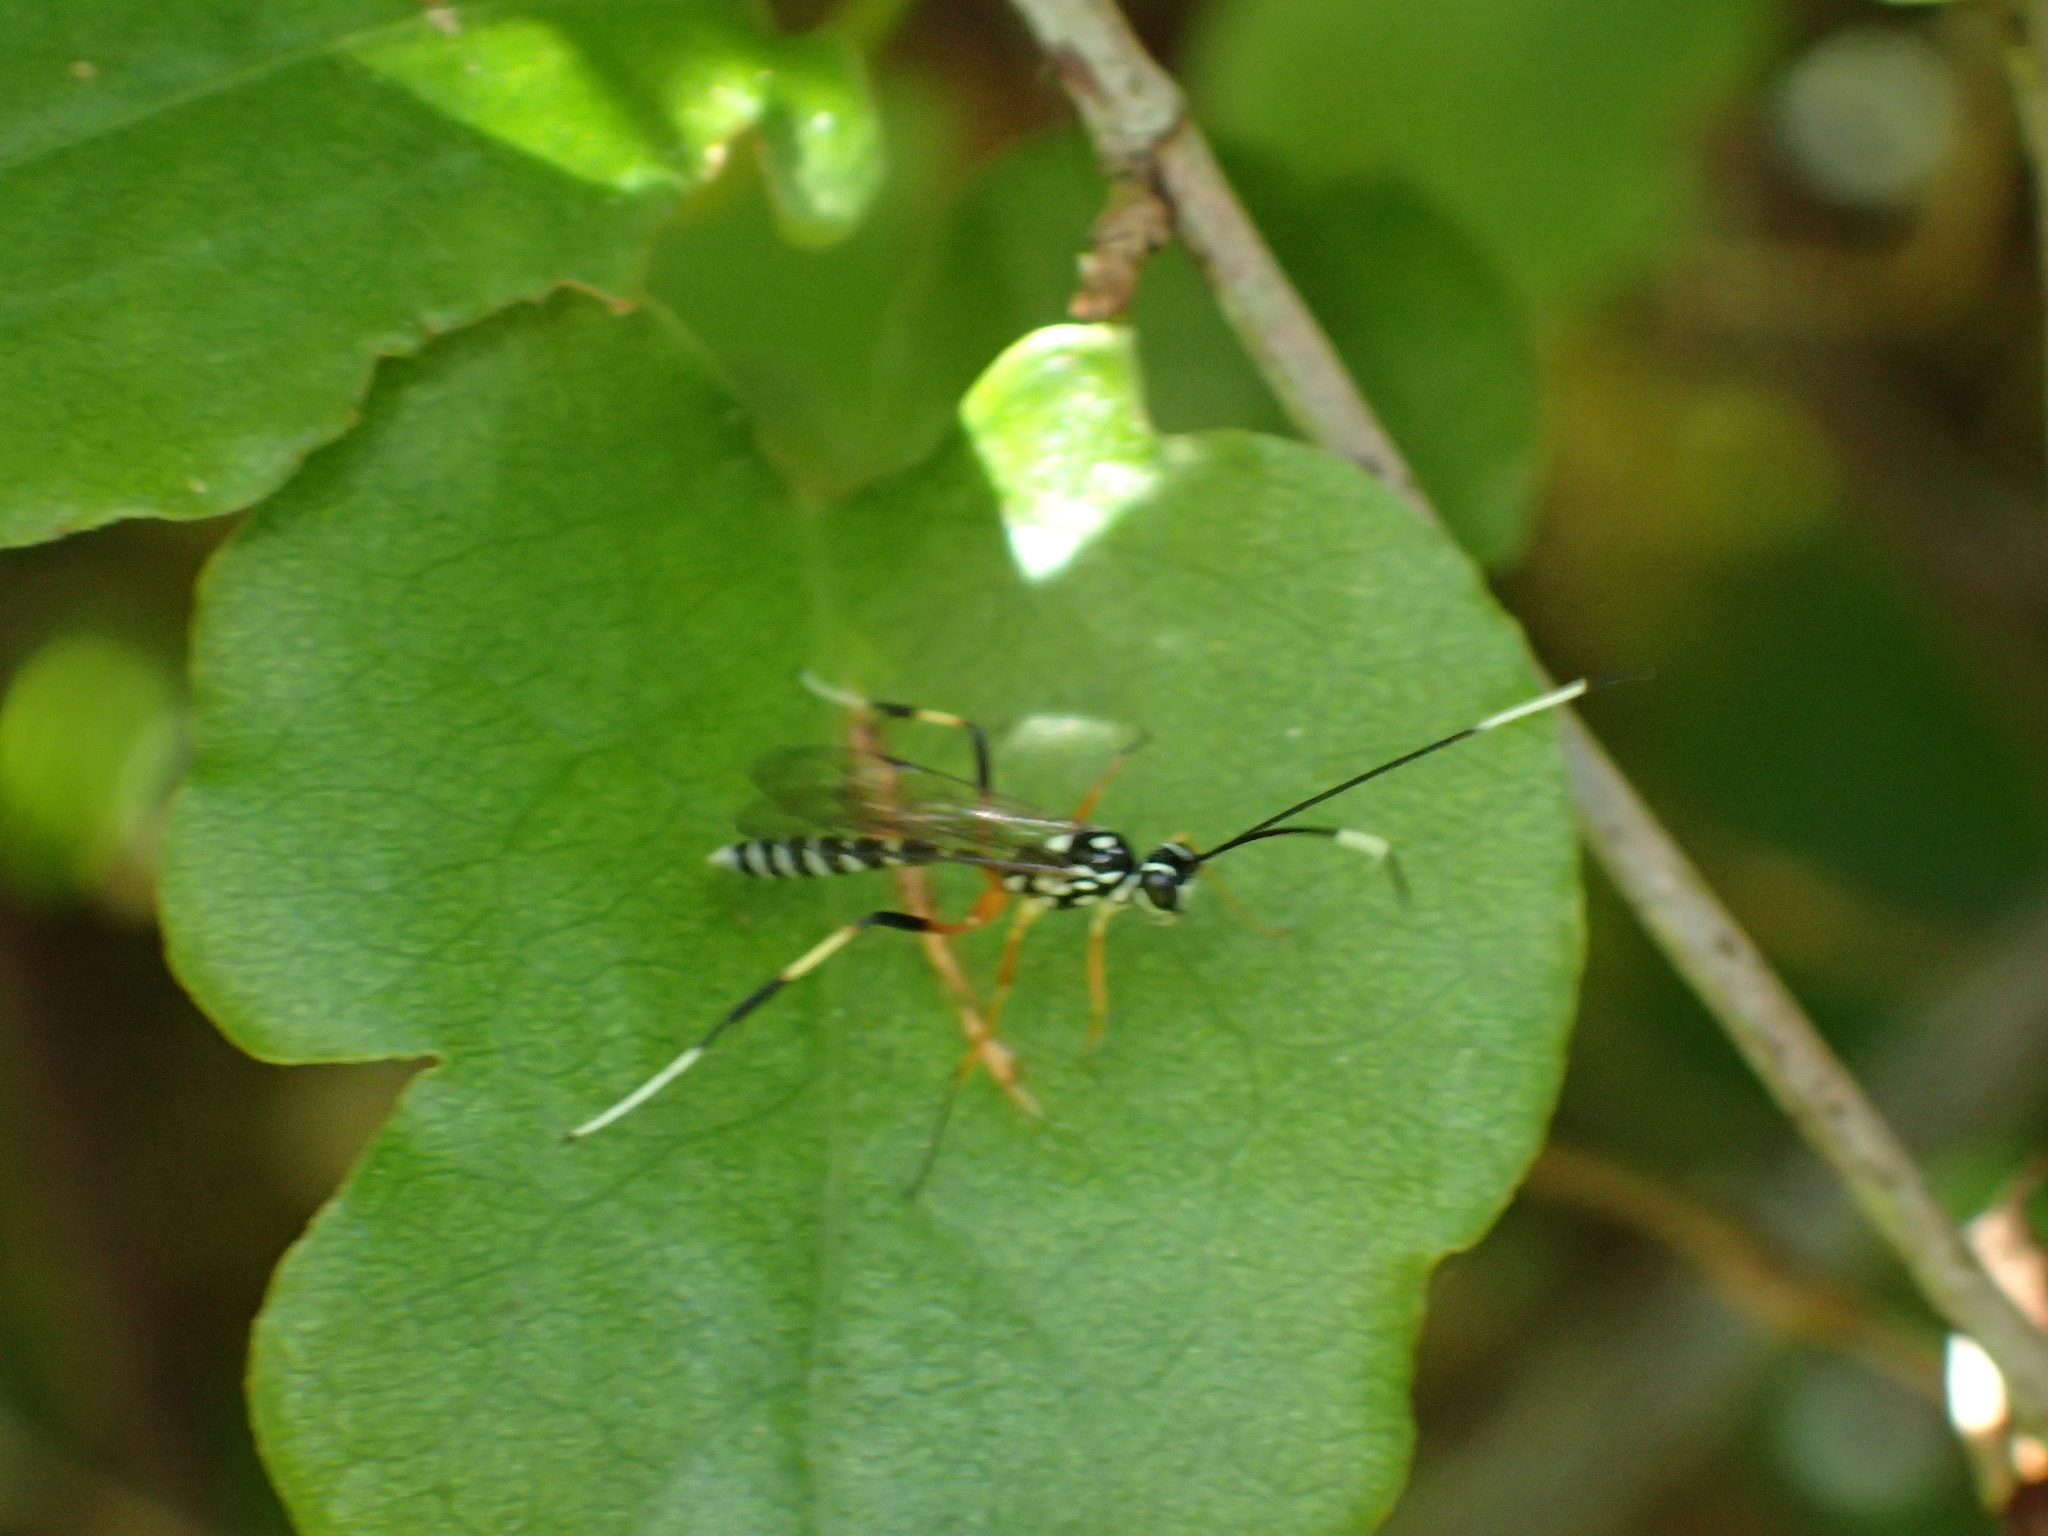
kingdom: Animalia
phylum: Arthropoda
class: Insecta
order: Hymenoptera
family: Ichneumonidae
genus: Xanthocryptus
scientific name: Xanthocryptus novozealandicus
